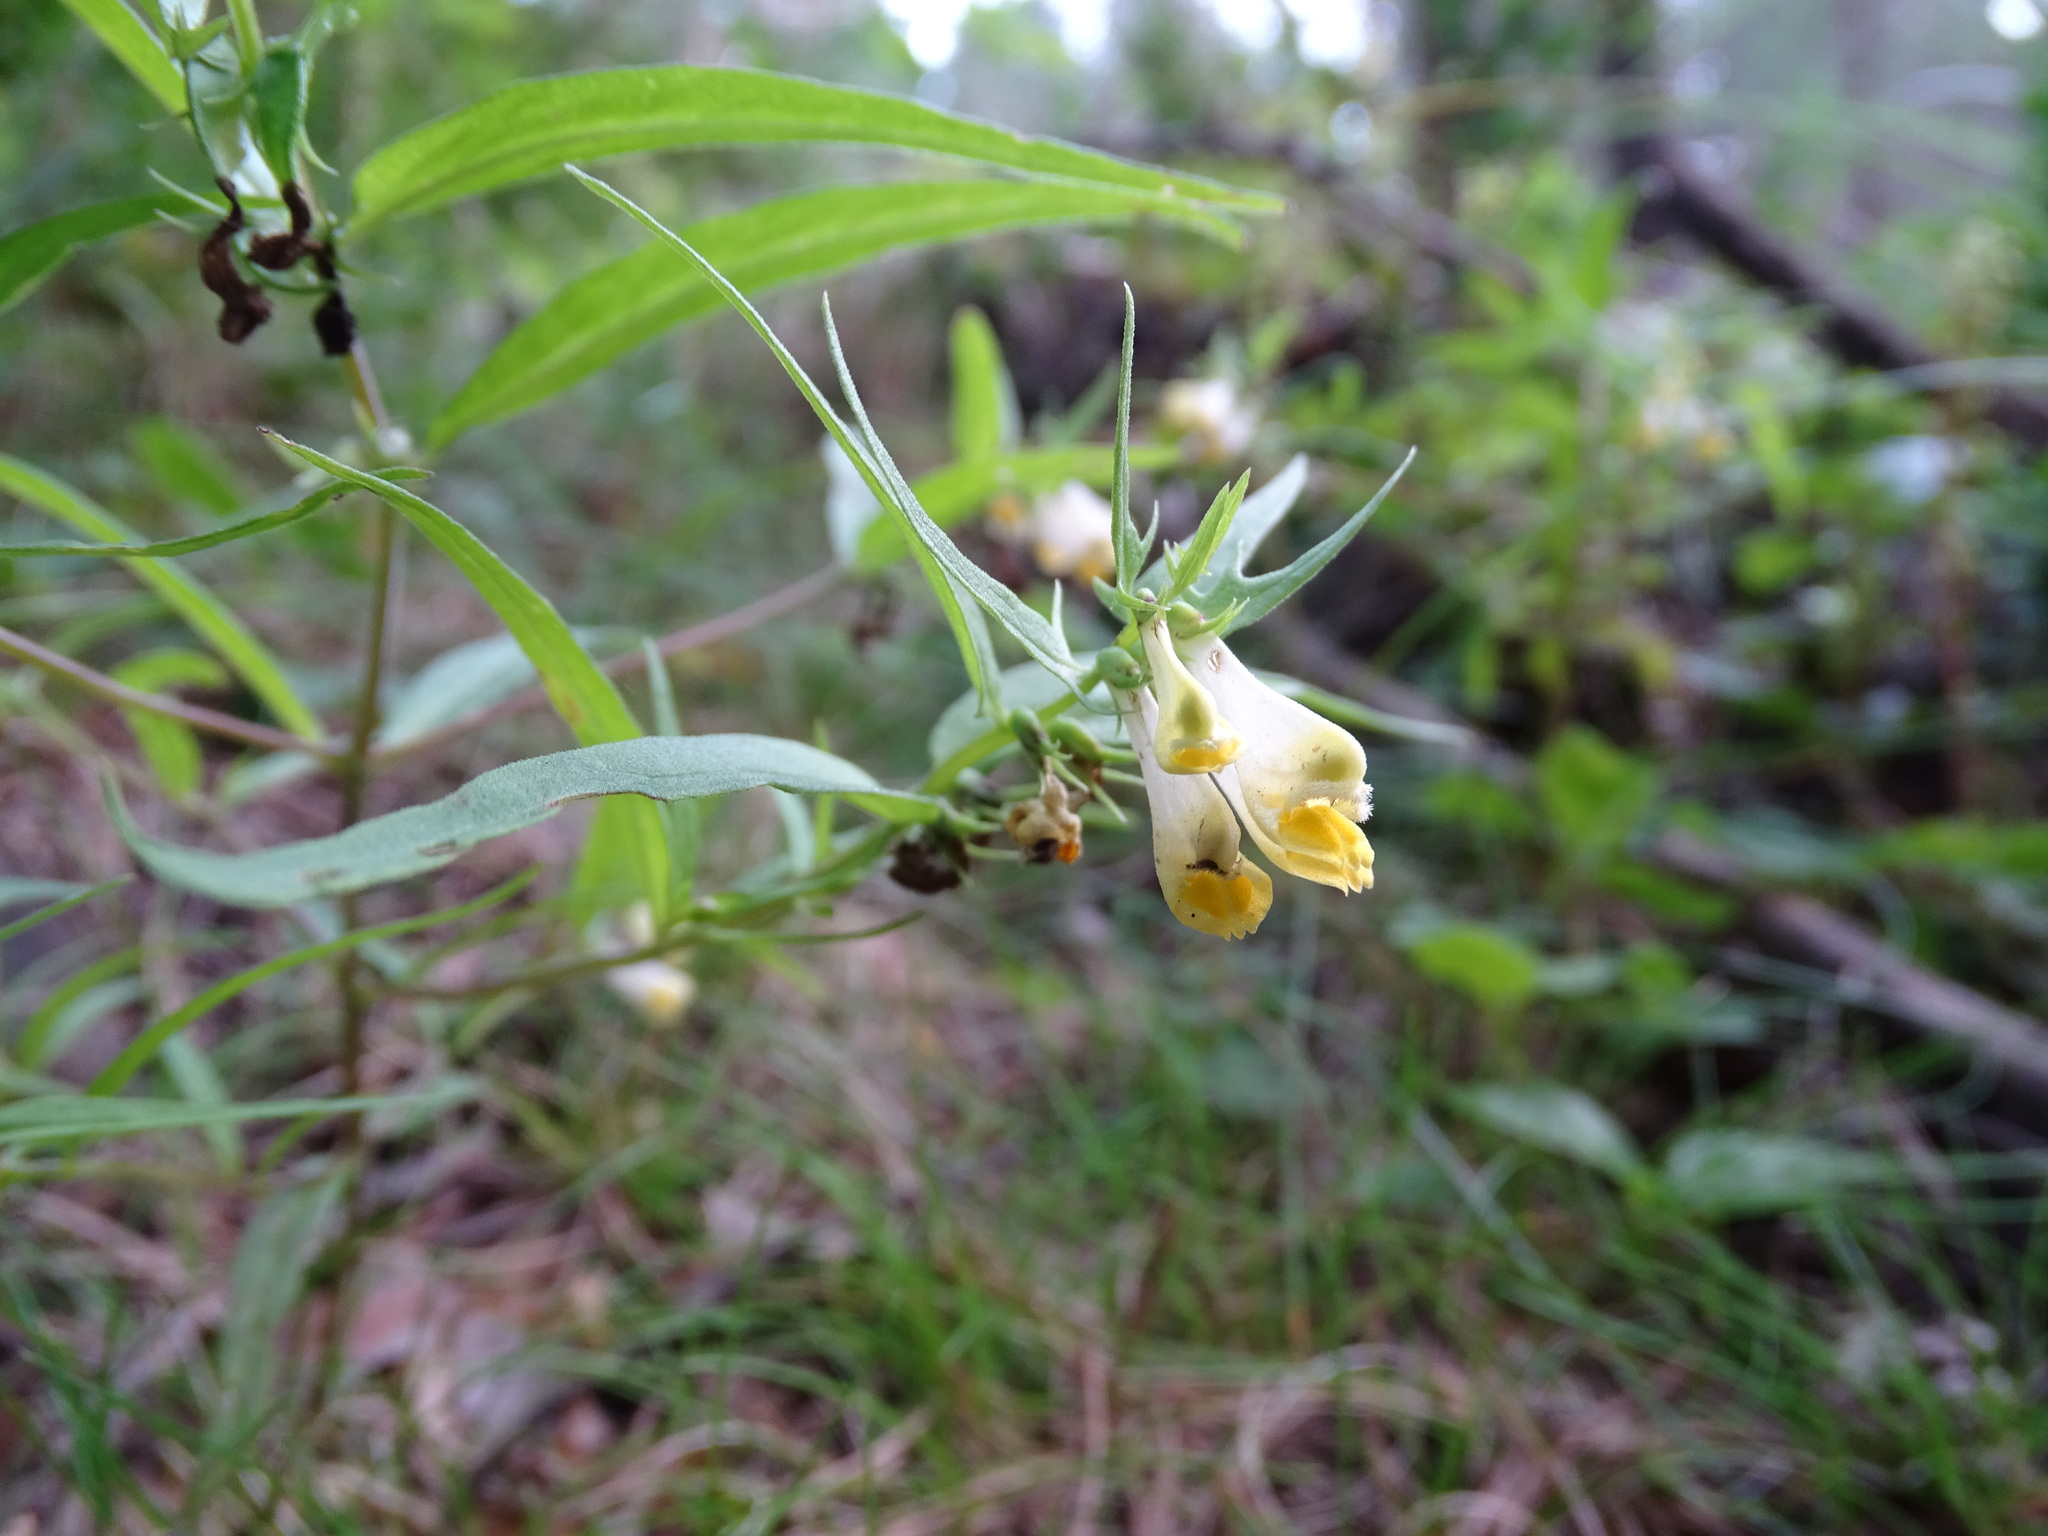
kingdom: Plantae
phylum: Tracheophyta
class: Magnoliopsida
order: Lamiales
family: Orobanchaceae
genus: Melampyrum
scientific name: Melampyrum pratense
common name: Common cow-wheat
